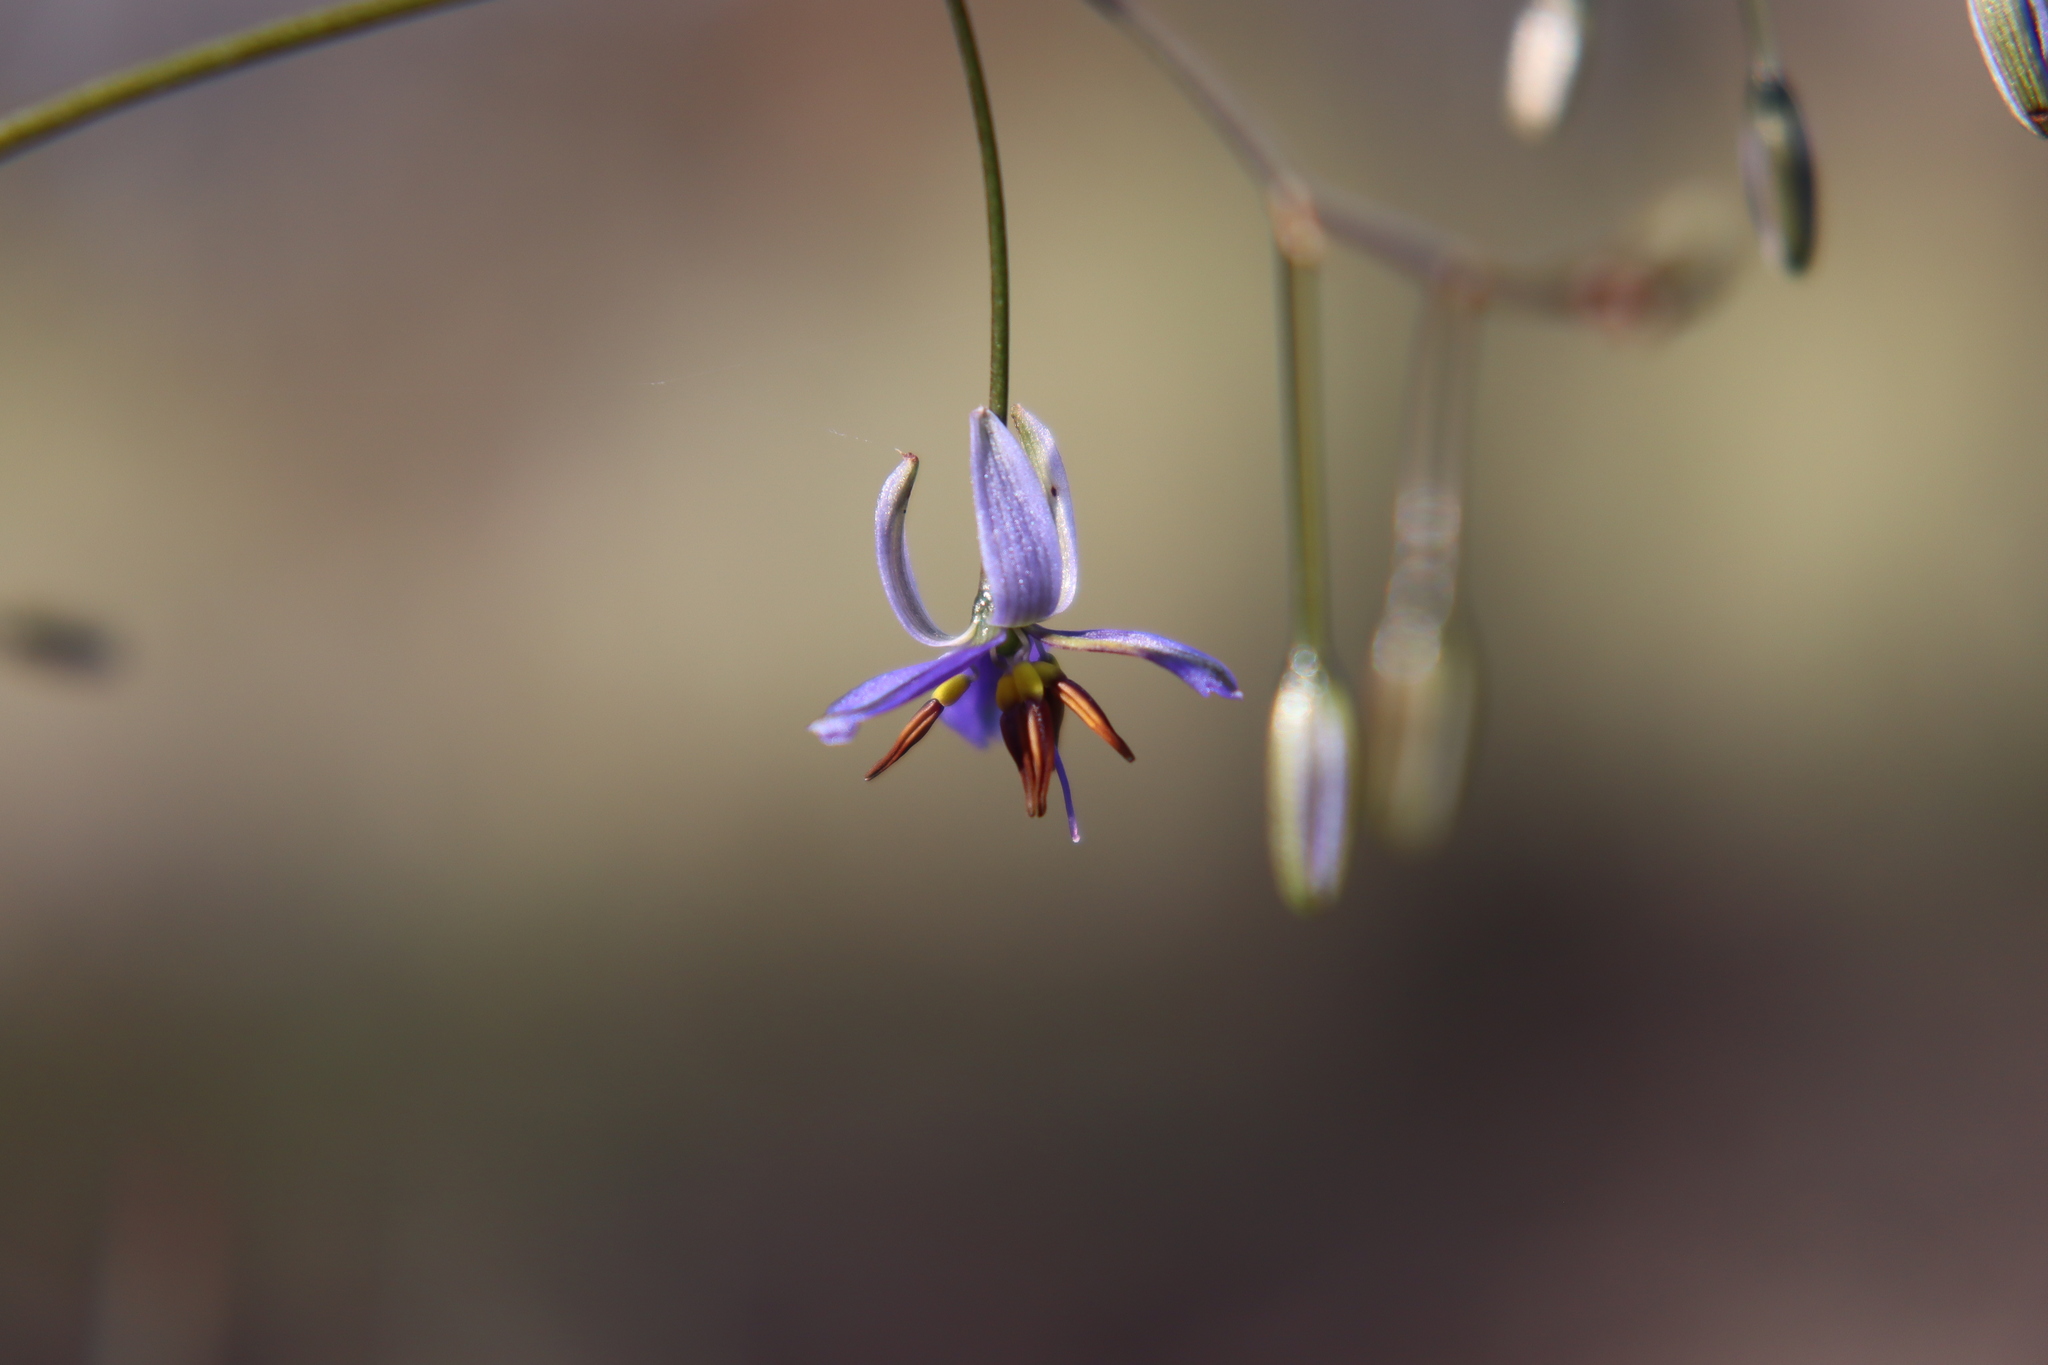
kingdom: Plantae
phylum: Tracheophyta
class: Liliopsida
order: Asparagales
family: Asphodelaceae
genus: Dianella
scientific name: Dianella revoluta
